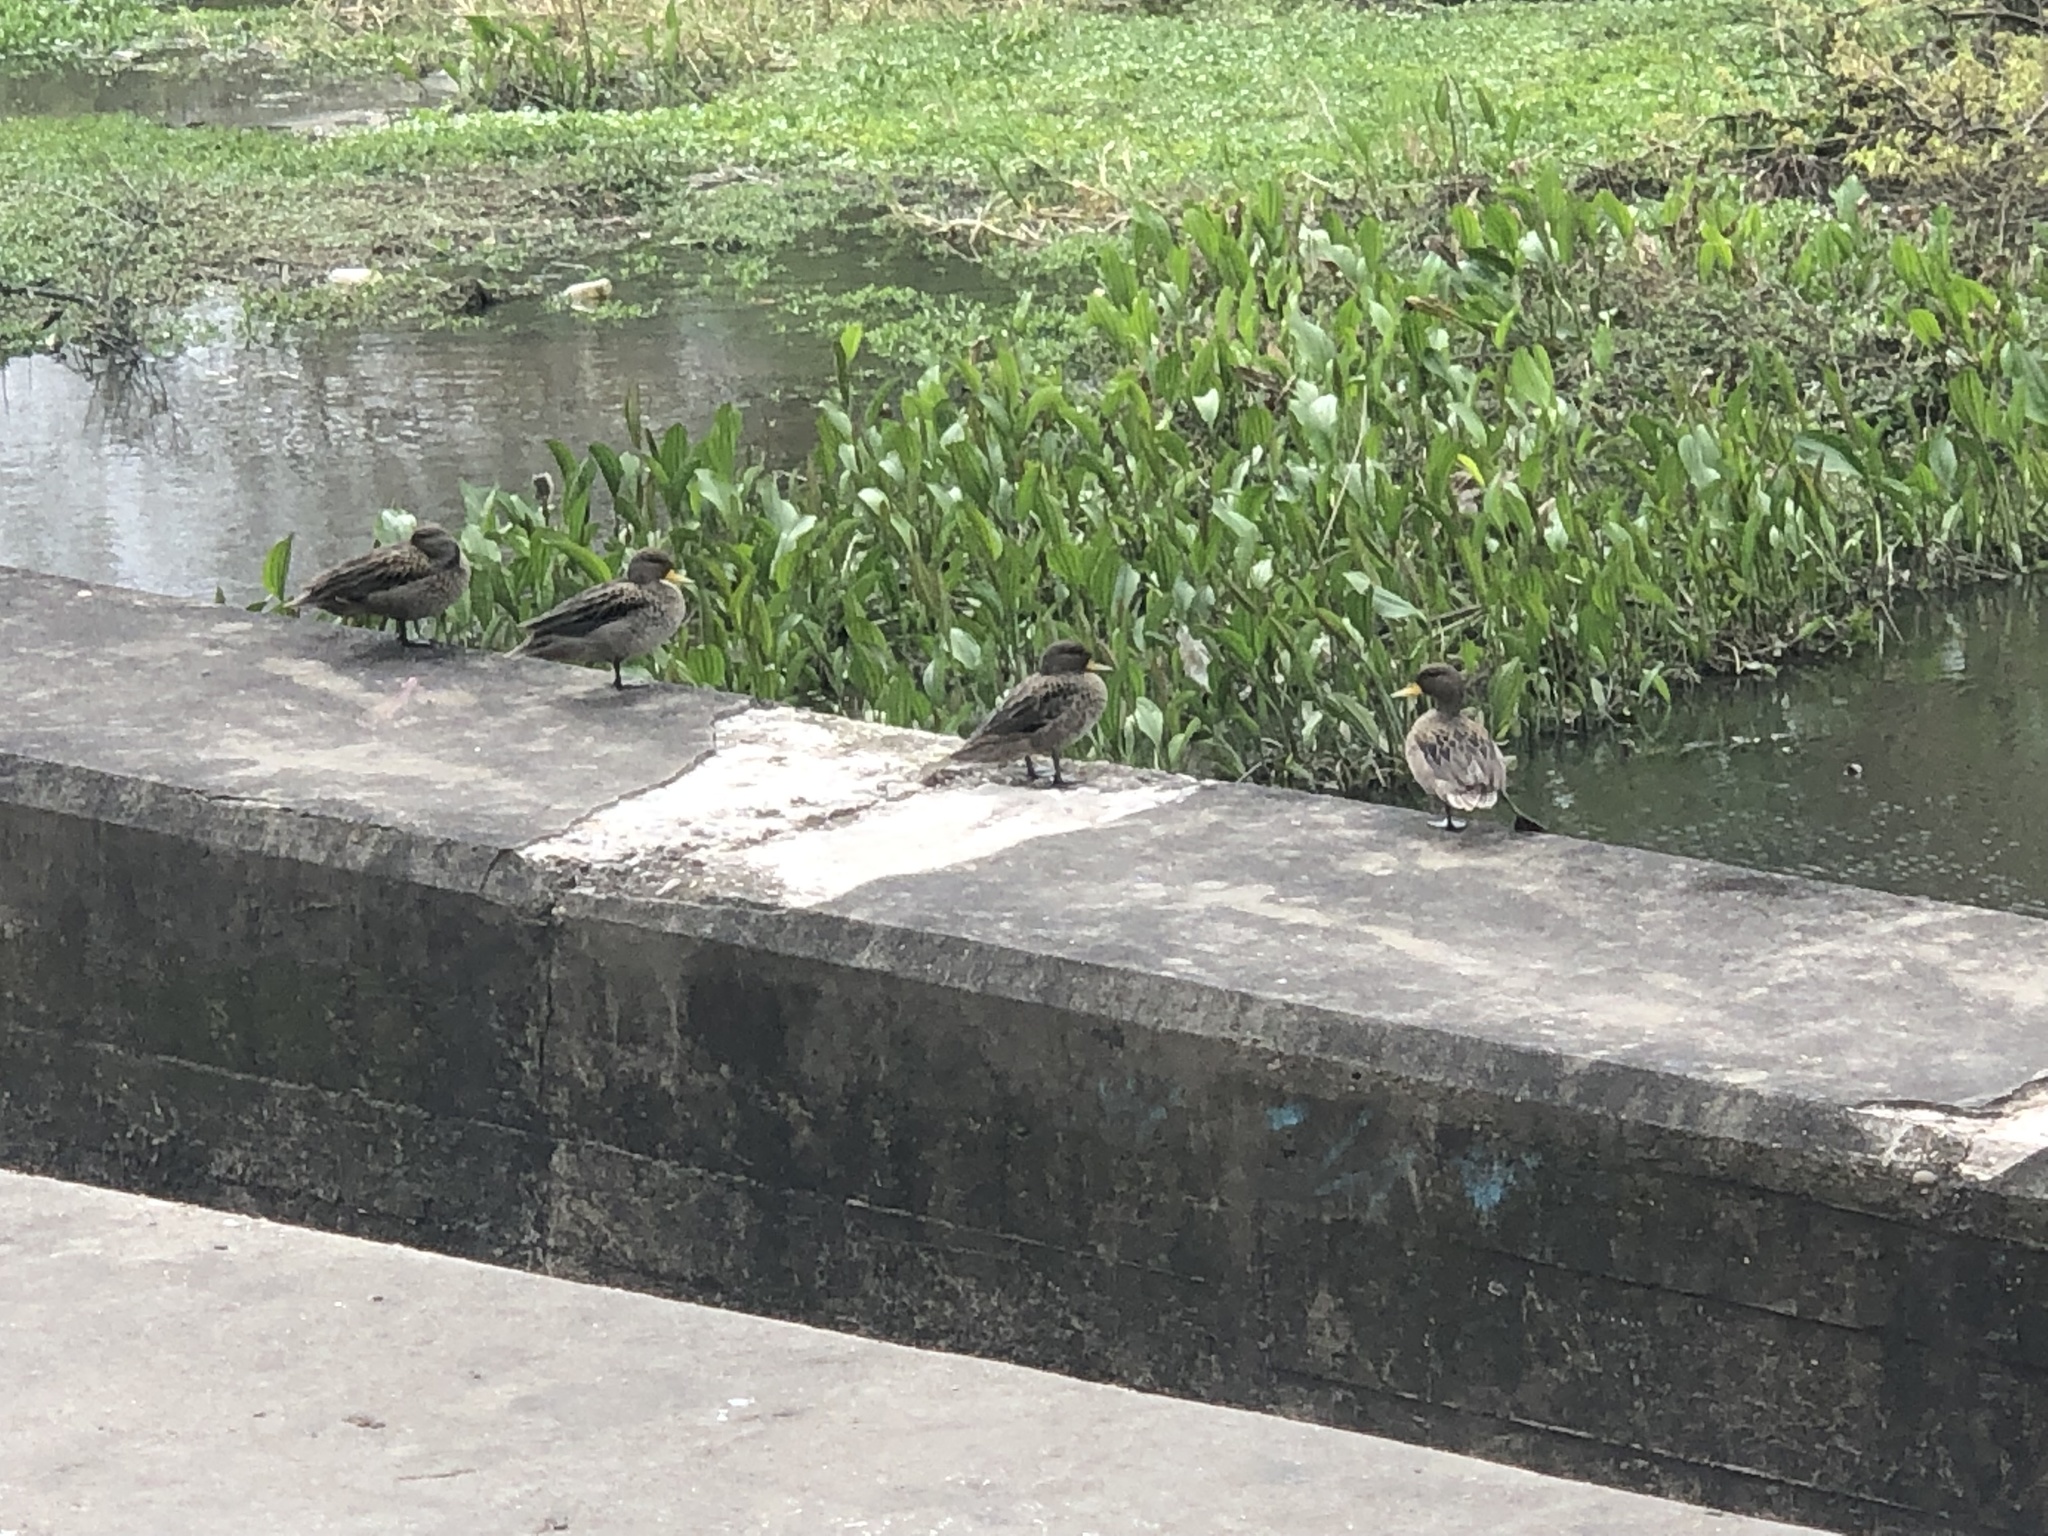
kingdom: Animalia
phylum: Chordata
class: Aves
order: Anseriformes
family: Anatidae
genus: Anas
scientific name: Anas flavirostris
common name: Yellow-billed teal
